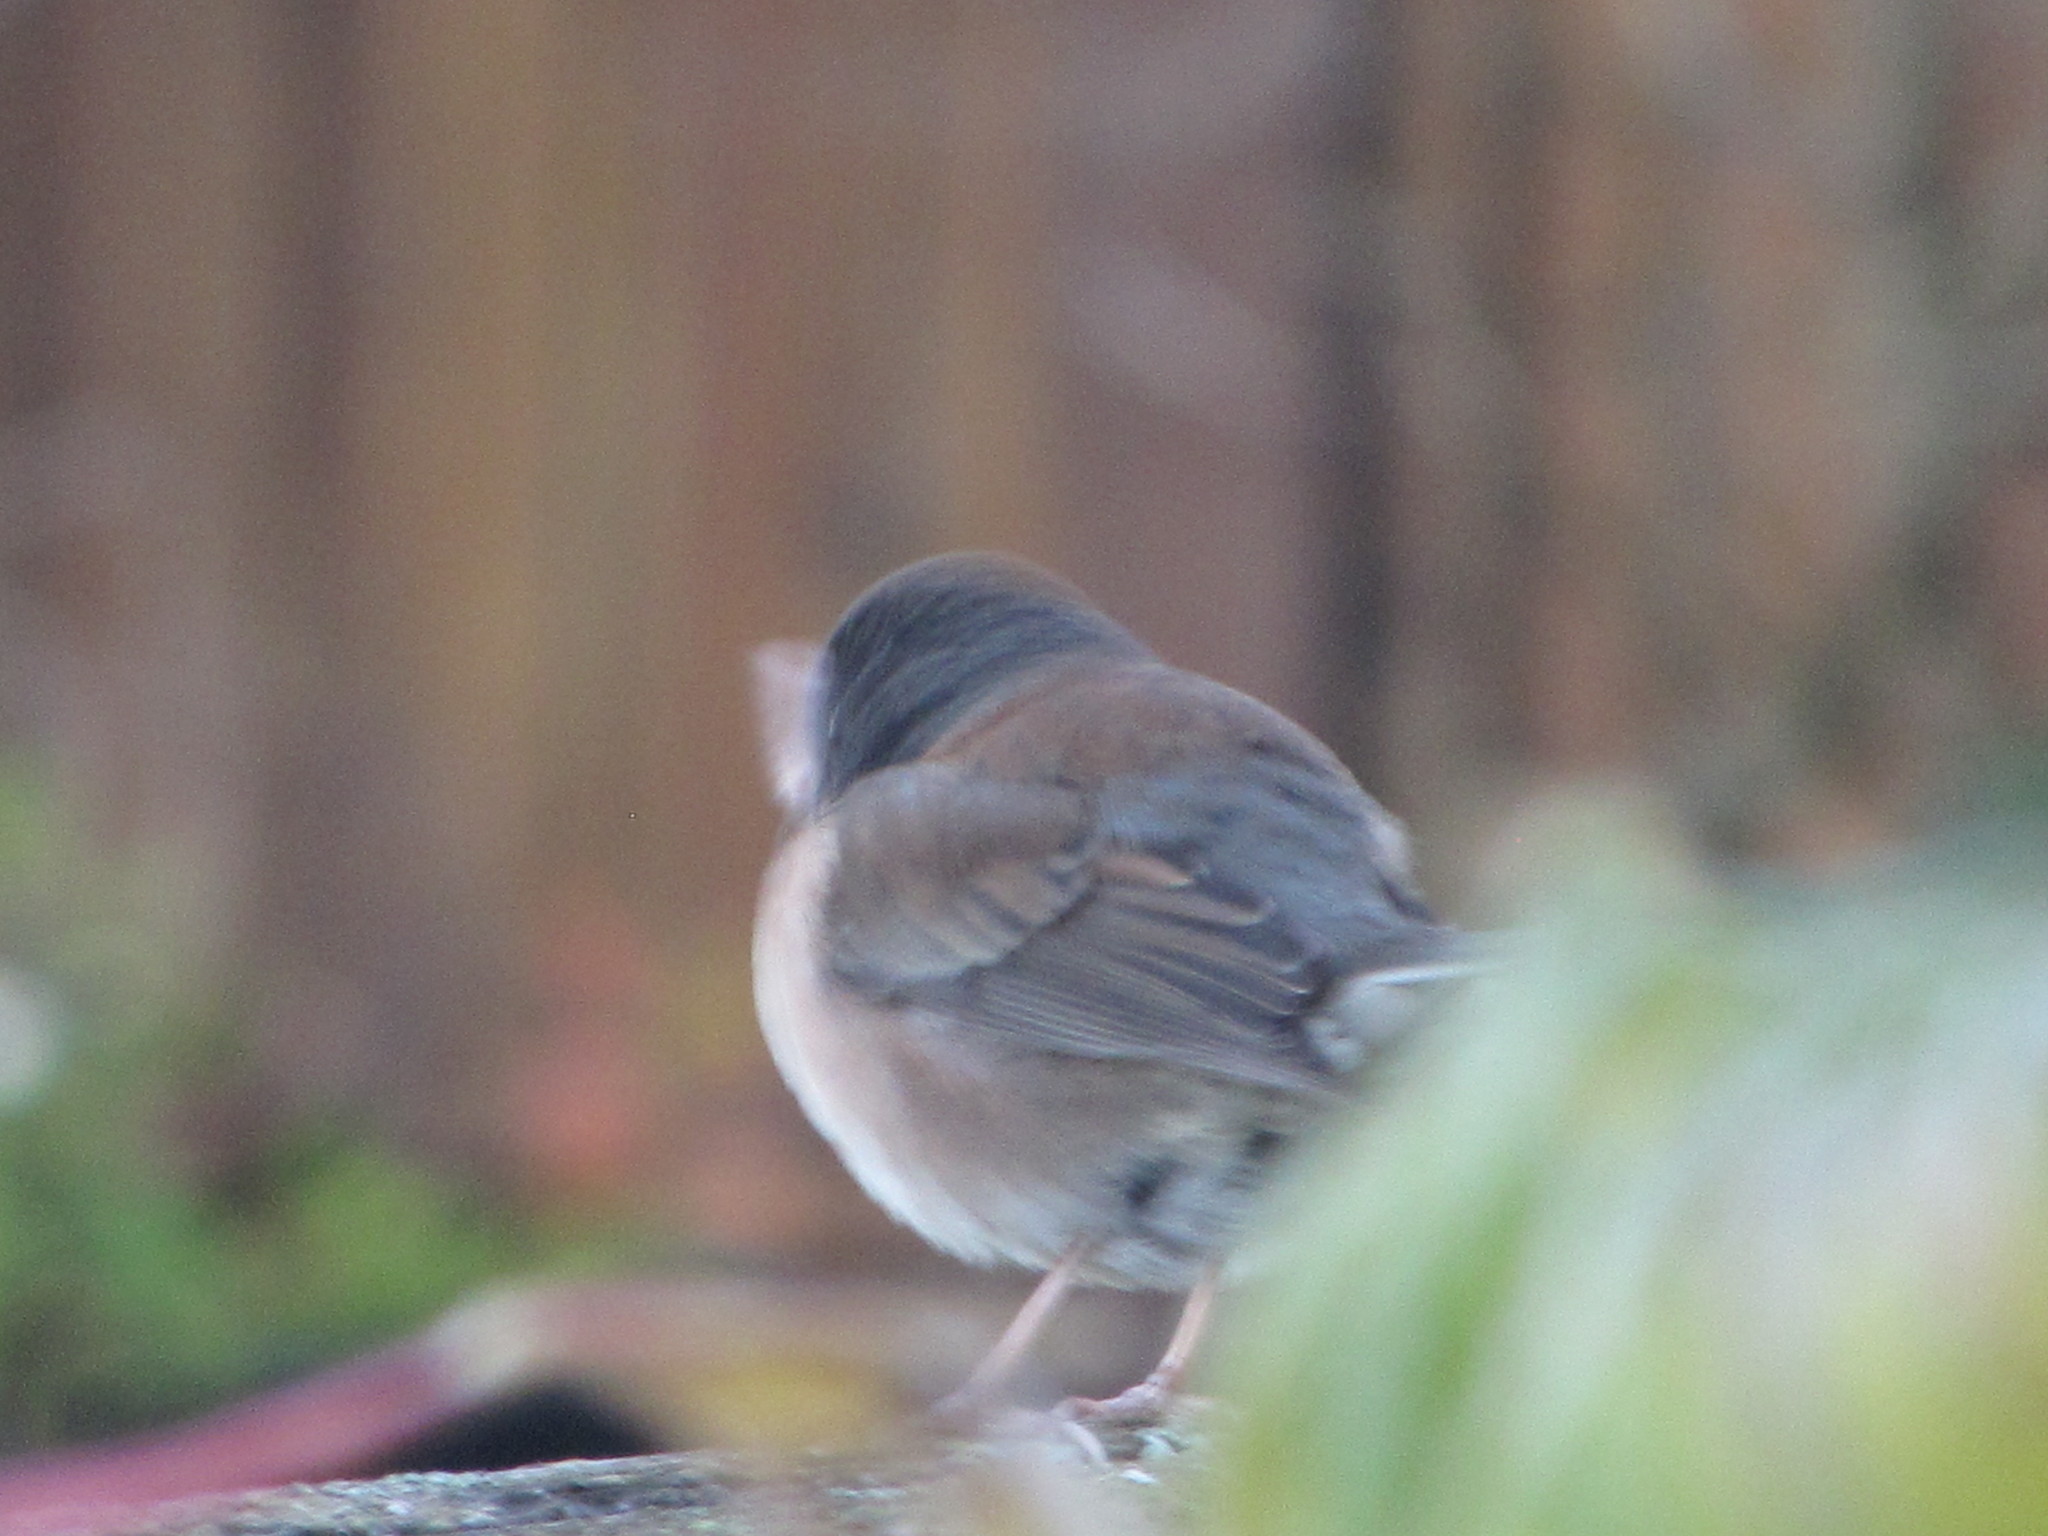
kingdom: Animalia
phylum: Chordata
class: Aves
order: Passeriformes
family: Passerellidae
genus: Junco
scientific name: Junco hyemalis
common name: Dark-eyed junco
